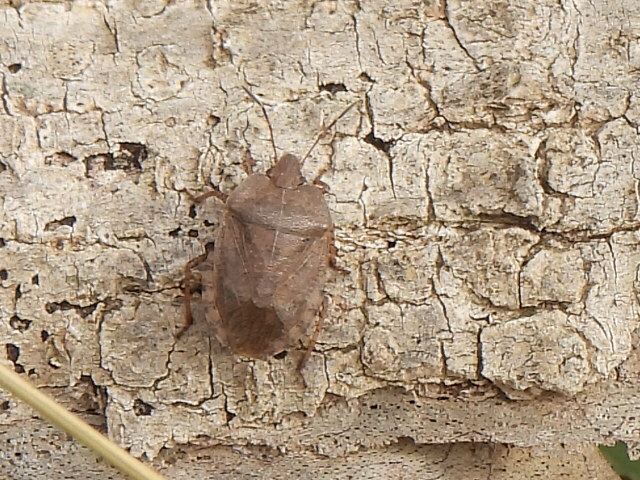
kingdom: Animalia
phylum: Arthropoda
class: Insecta
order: Hemiptera
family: Pentatomidae
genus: Menecles
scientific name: Menecles insertus
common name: Elf shoe stink bug
